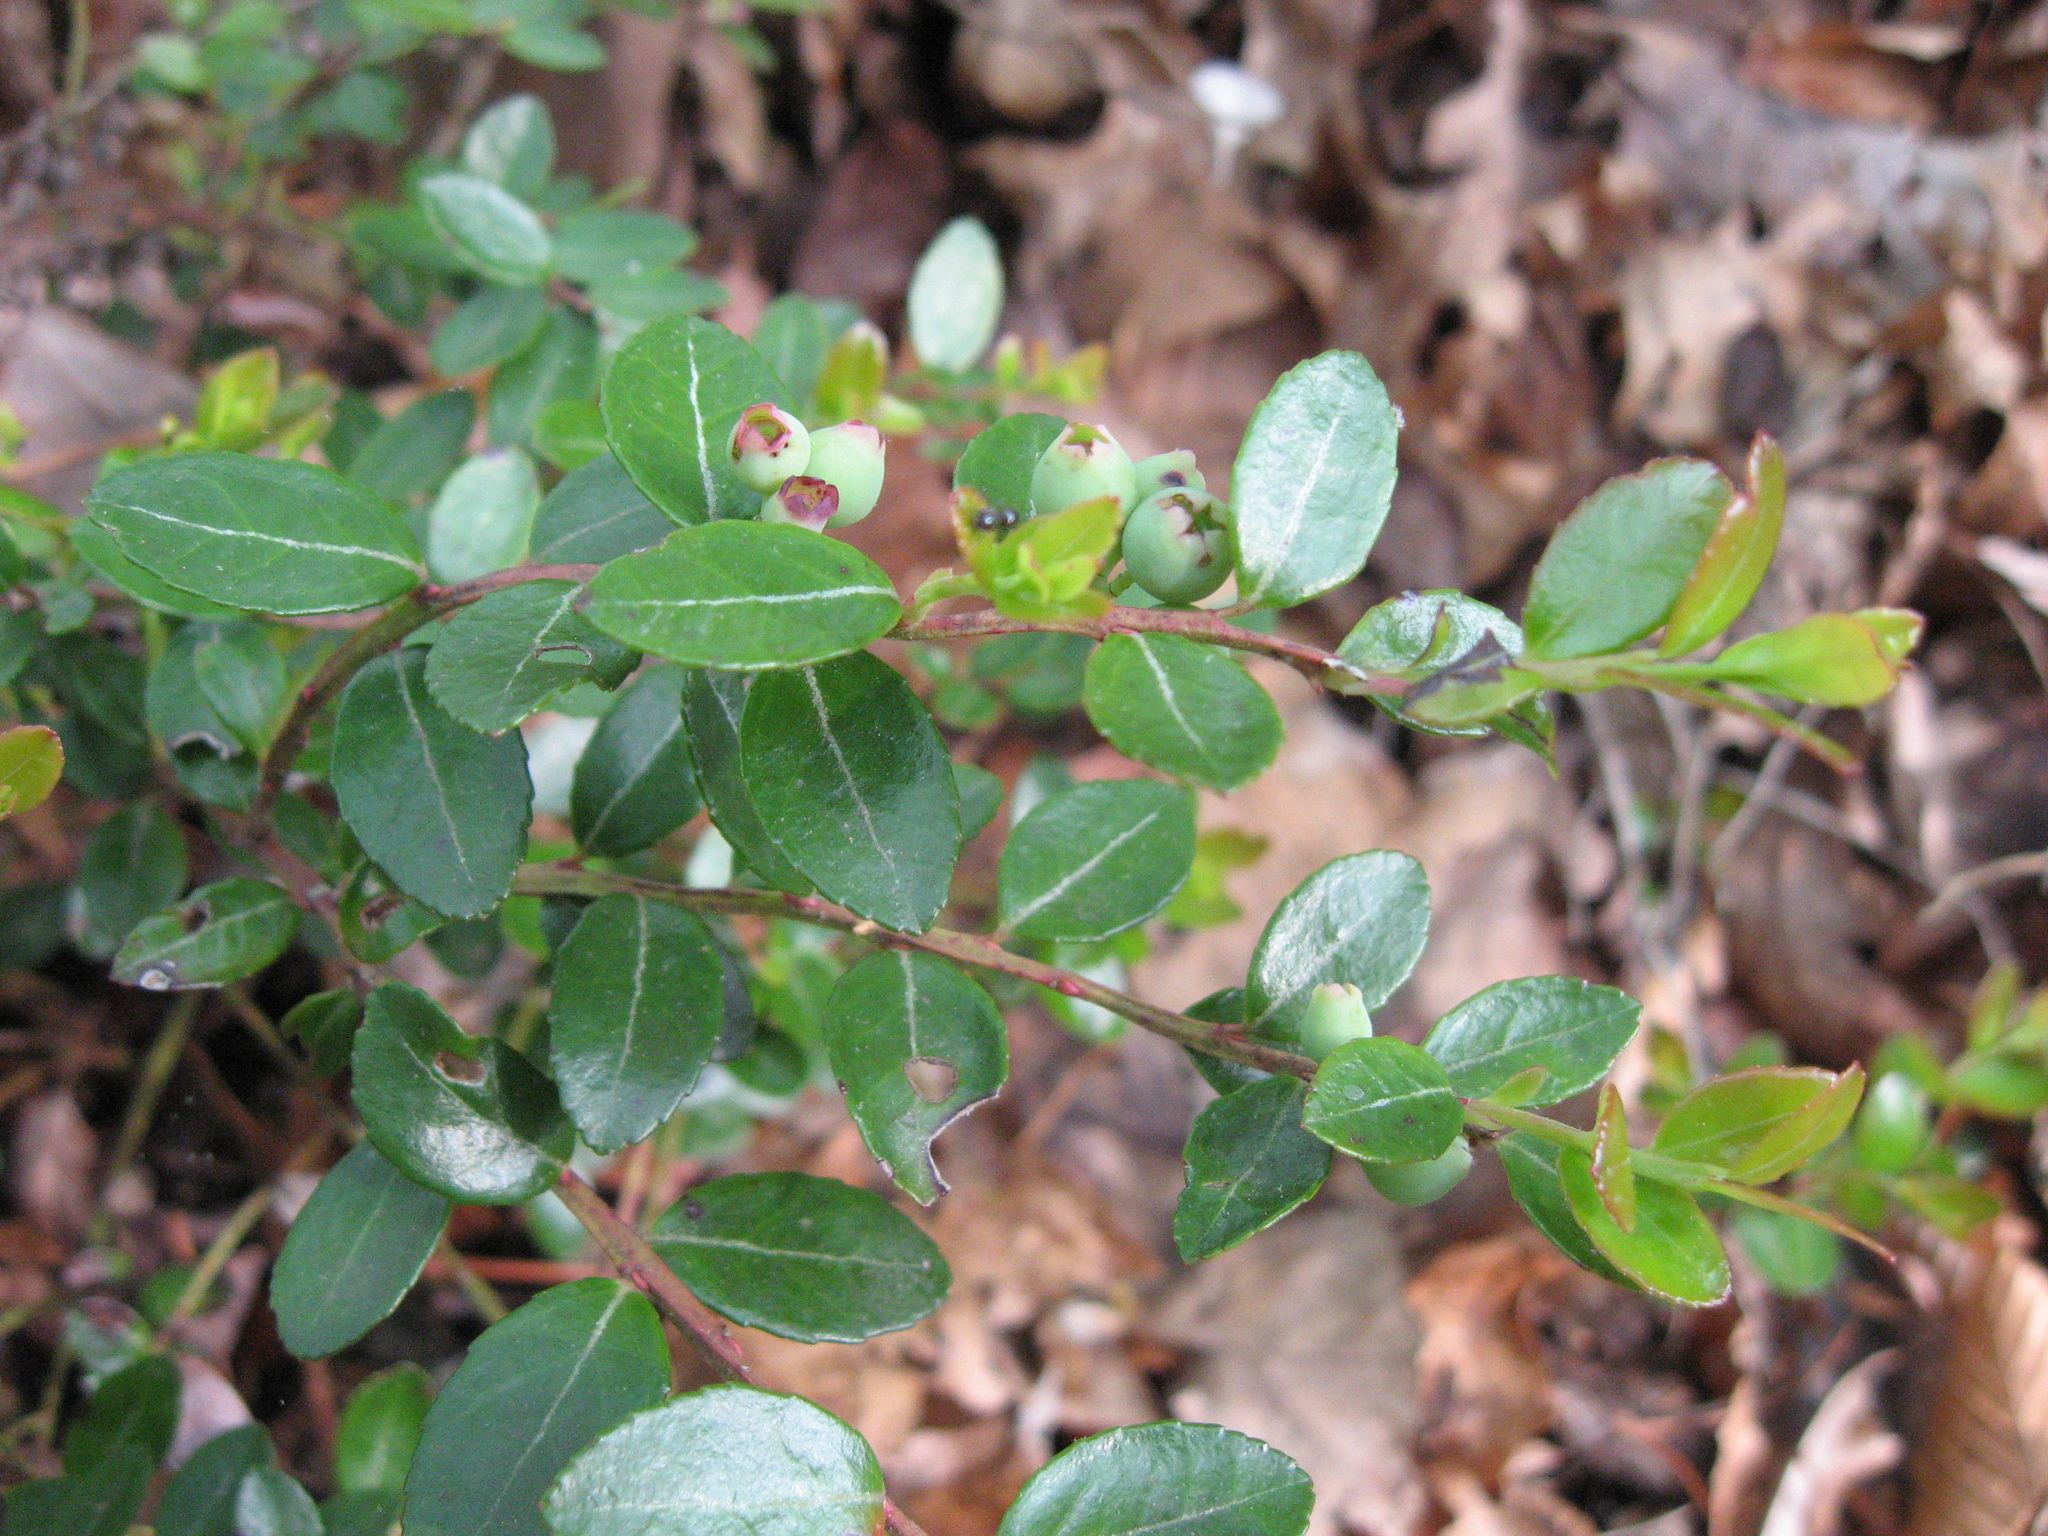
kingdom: Plantae
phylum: Tracheophyta
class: Magnoliopsida
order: Ericales
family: Ericaceae
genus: Gaylussacia
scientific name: Gaylussacia brachycera
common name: Box huckleberry
